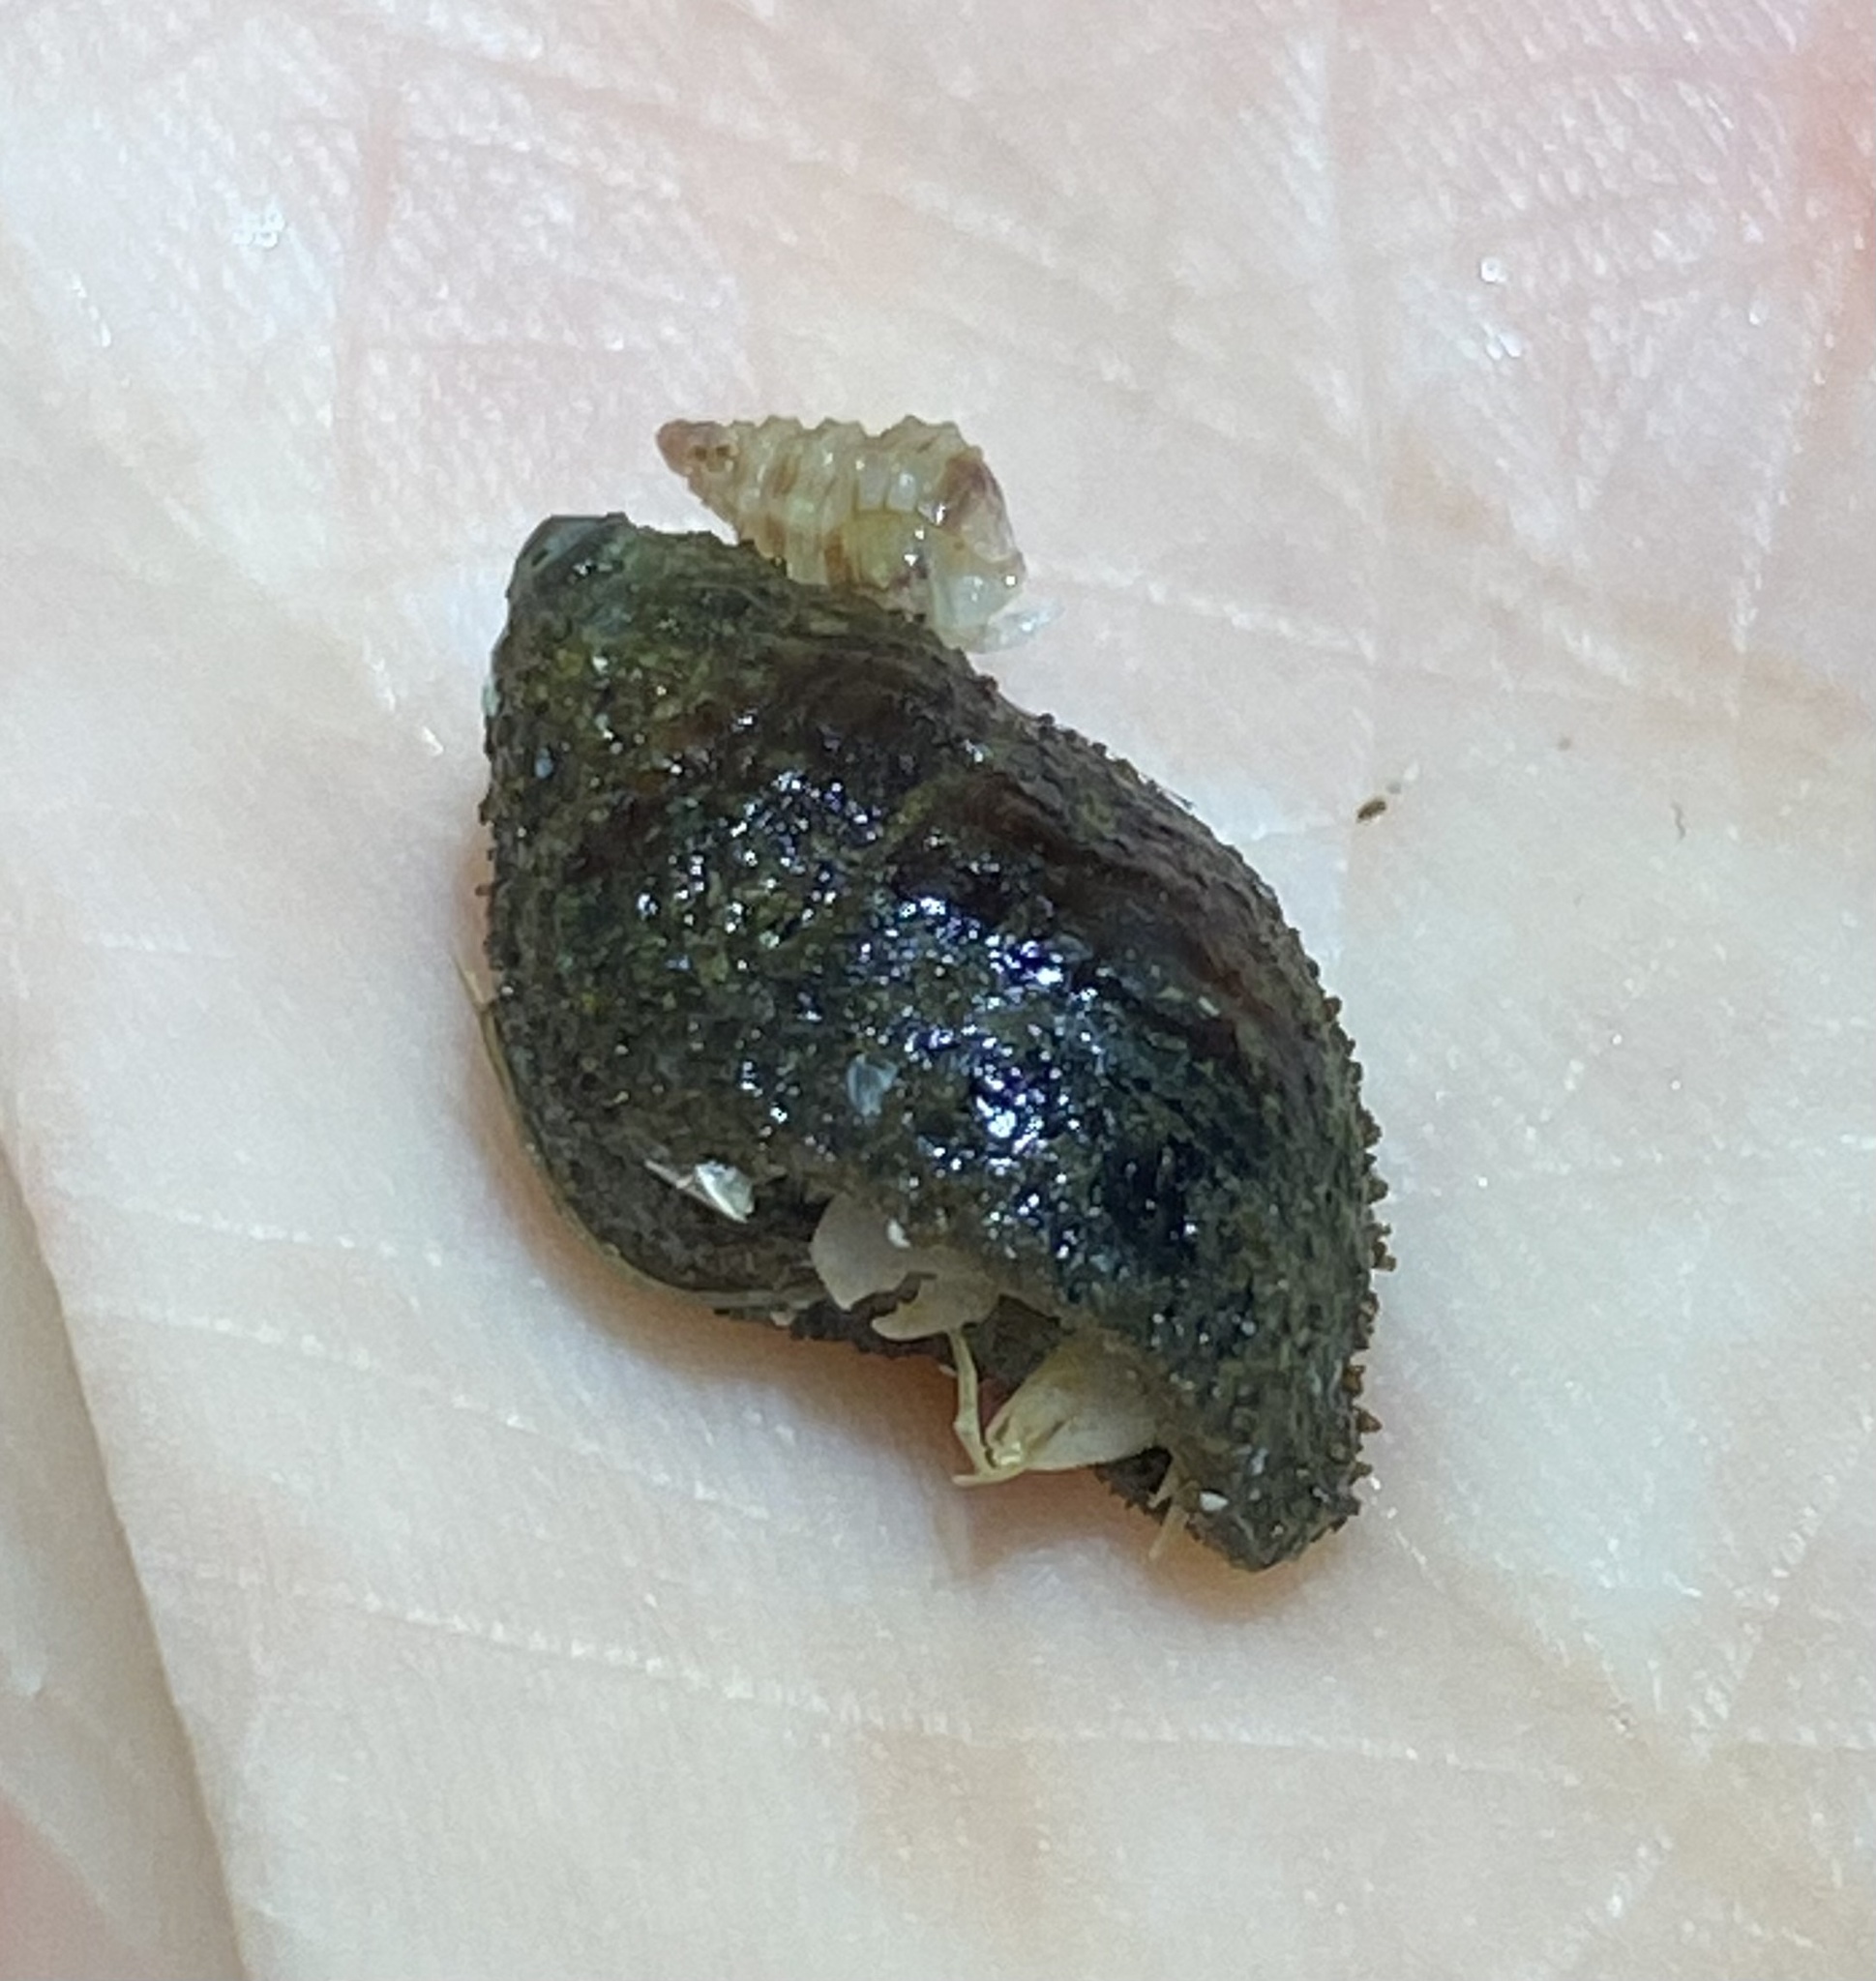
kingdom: Animalia
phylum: Mollusca
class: Gastropoda
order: Neogastropoda
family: Nassariidae
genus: Ilyanassa
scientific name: Ilyanassa obsoleta
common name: Eastern mudsnail
